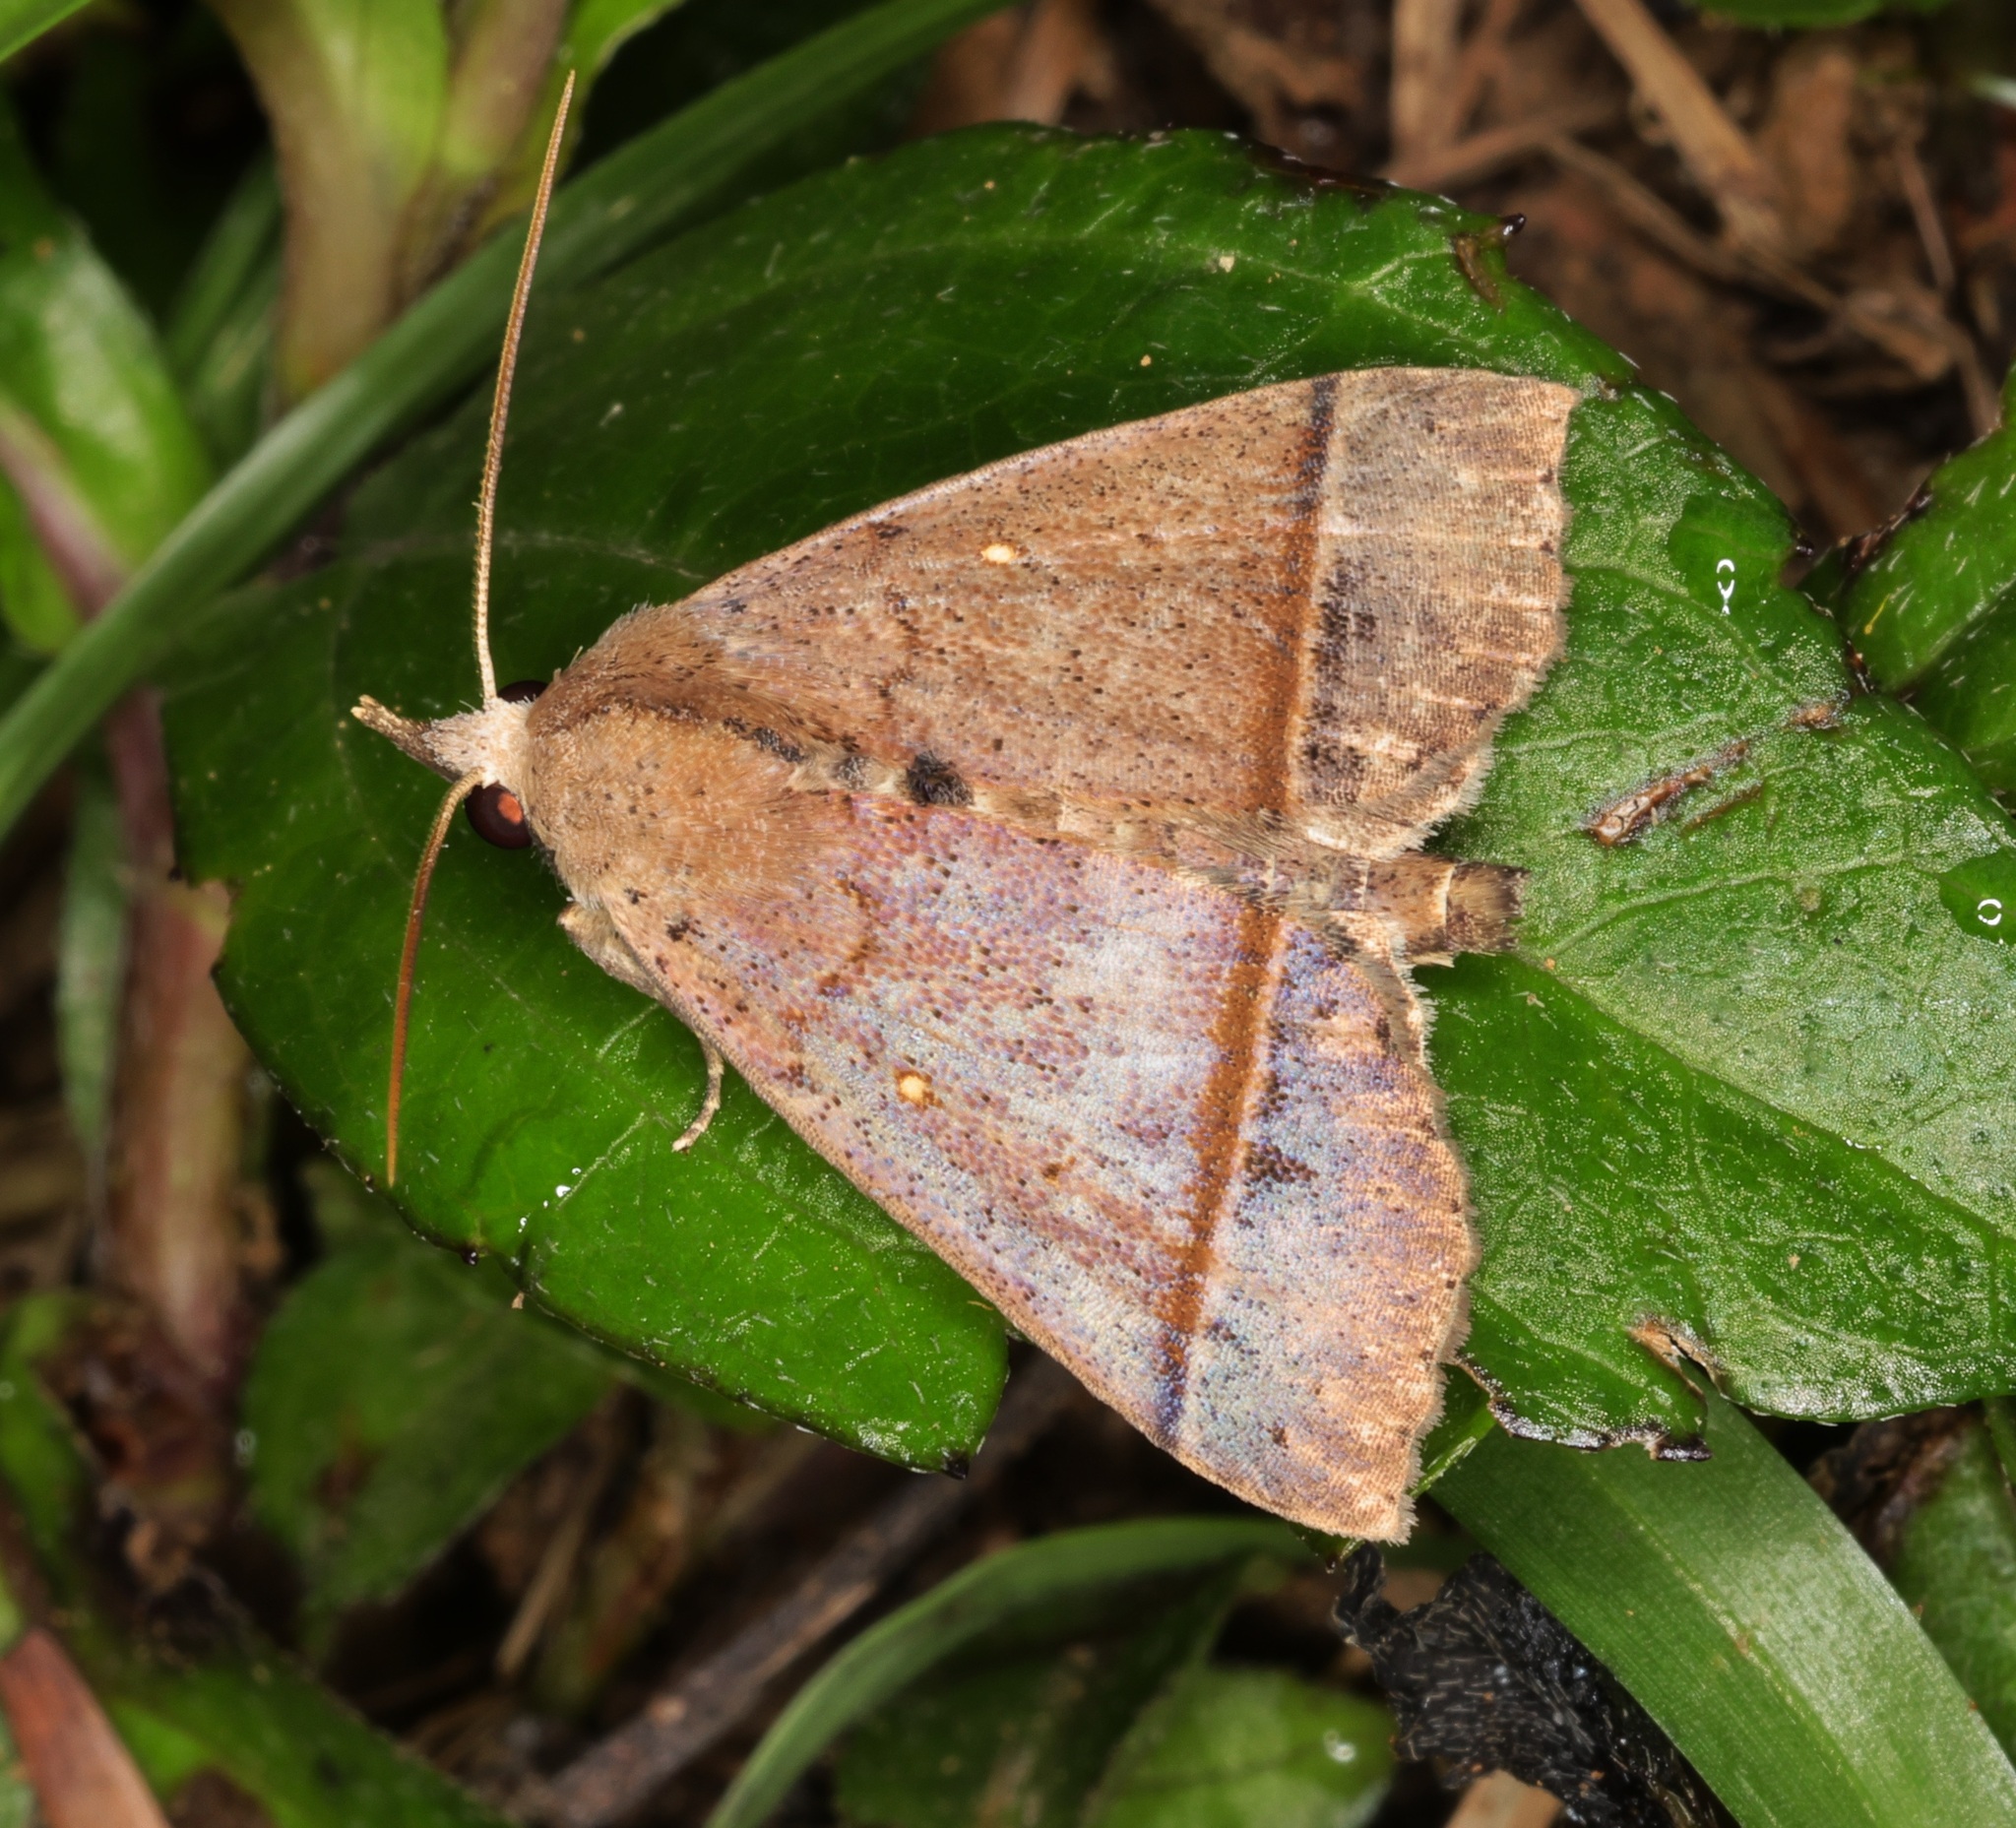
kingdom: Animalia
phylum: Arthropoda
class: Insecta
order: Lepidoptera
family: Erebidae
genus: Hepatica
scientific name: Hepatica irrorata
